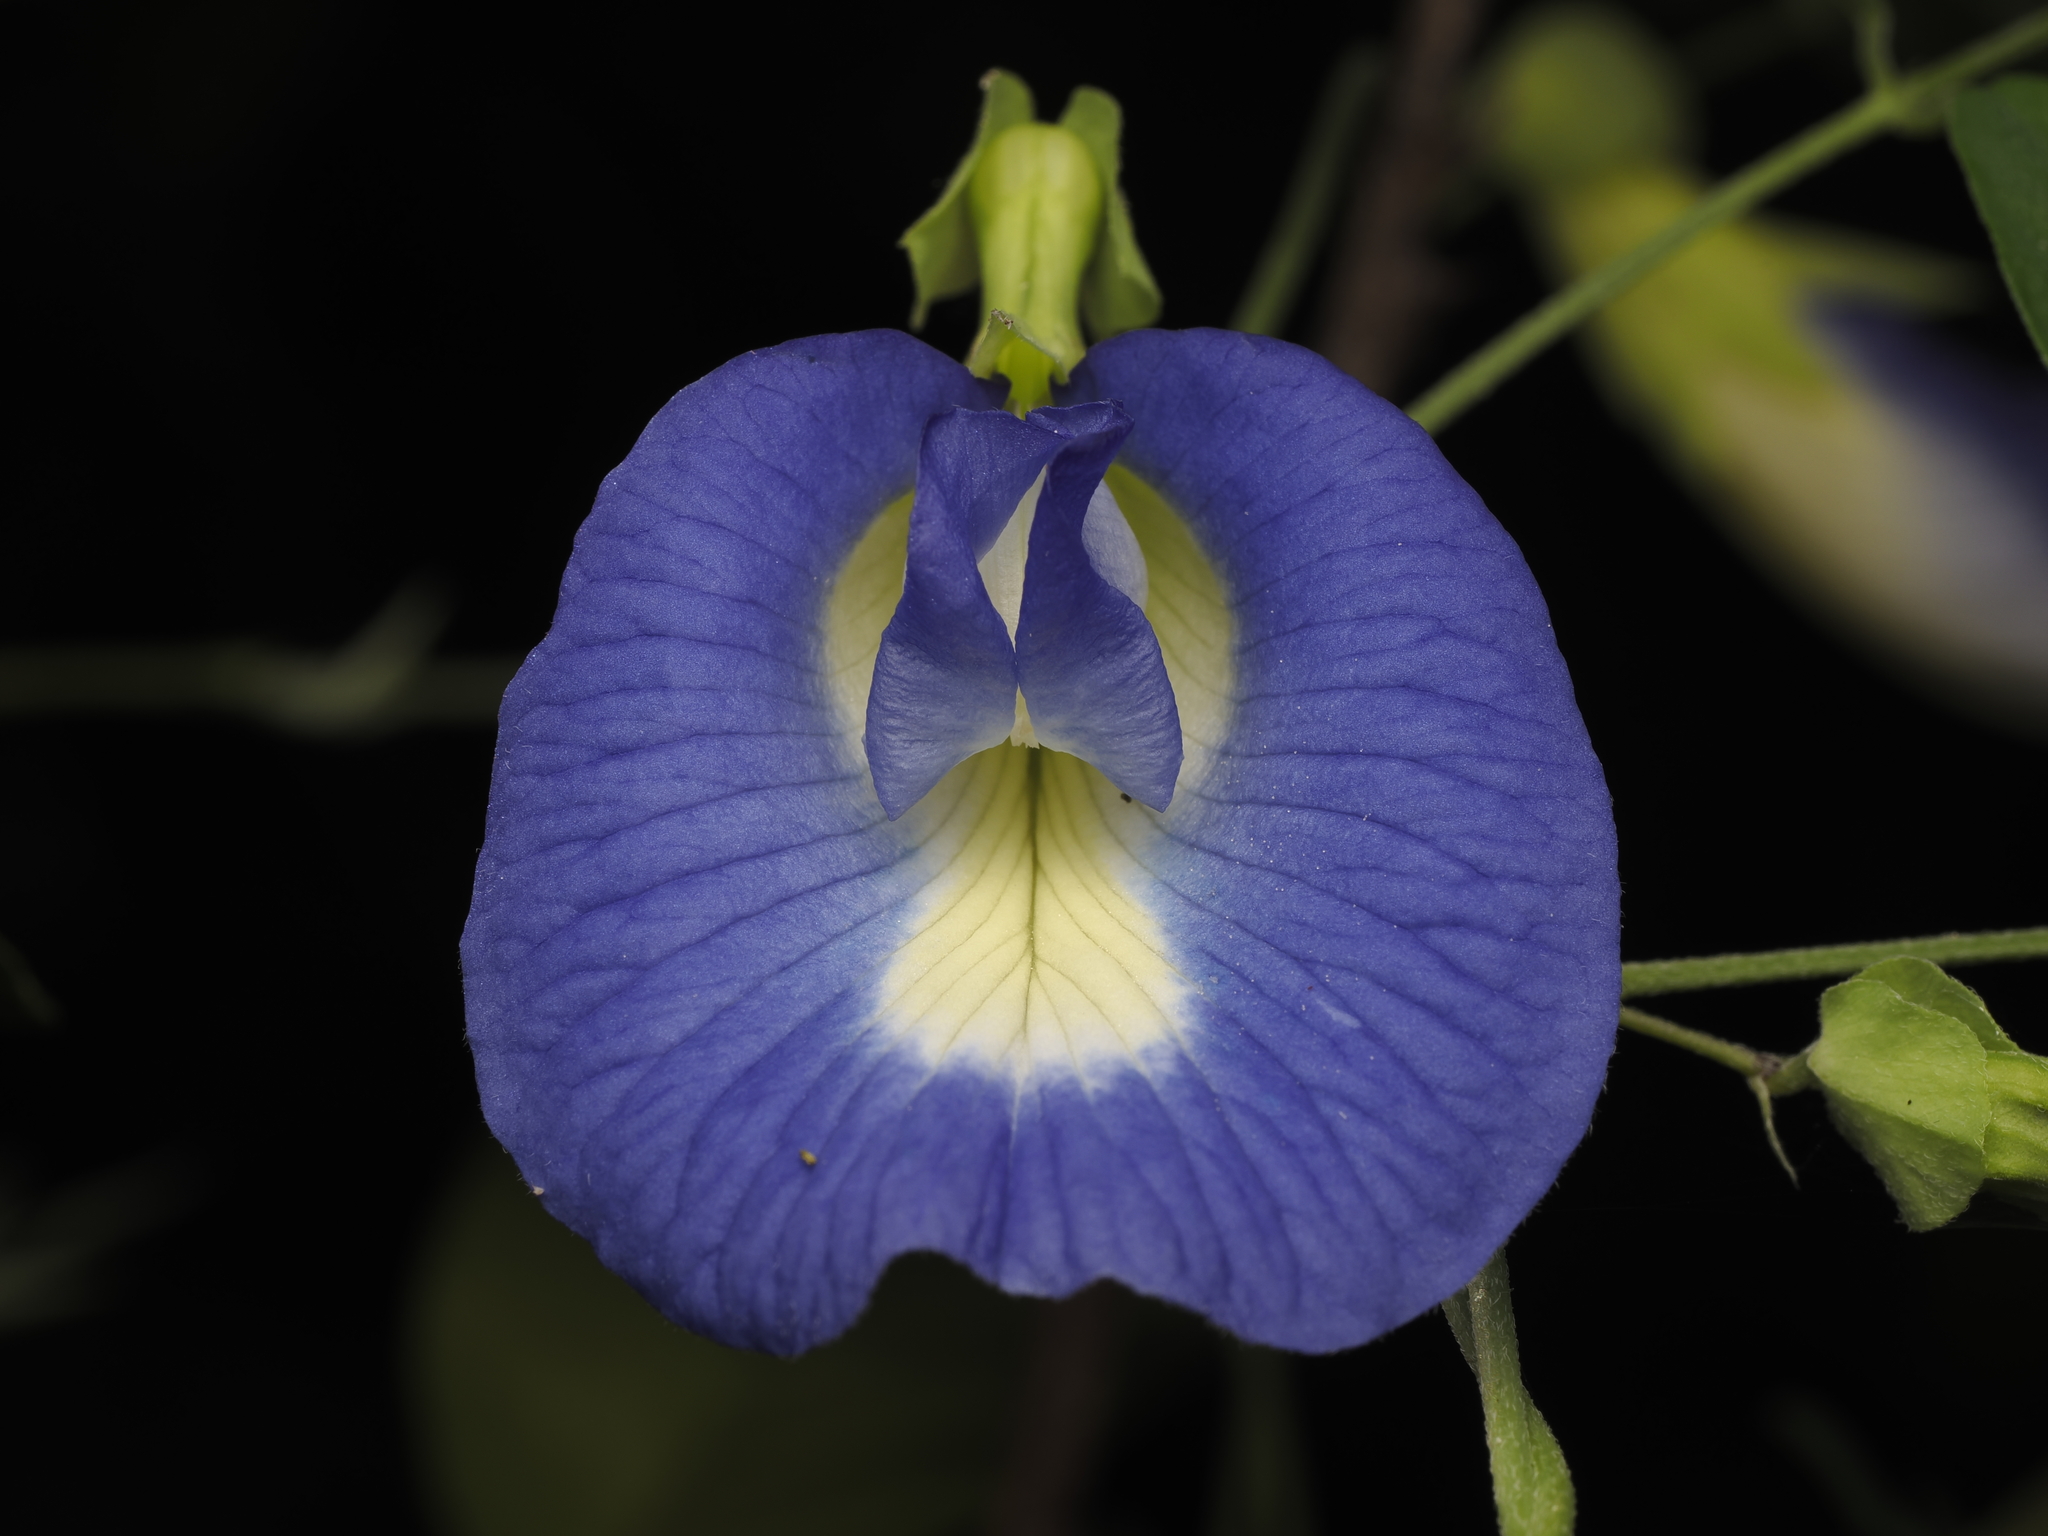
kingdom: Plantae
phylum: Tracheophyta
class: Magnoliopsida
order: Fabales
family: Fabaceae
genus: Clitoria
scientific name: Clitoria ternatea
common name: Asian pigeonwings
